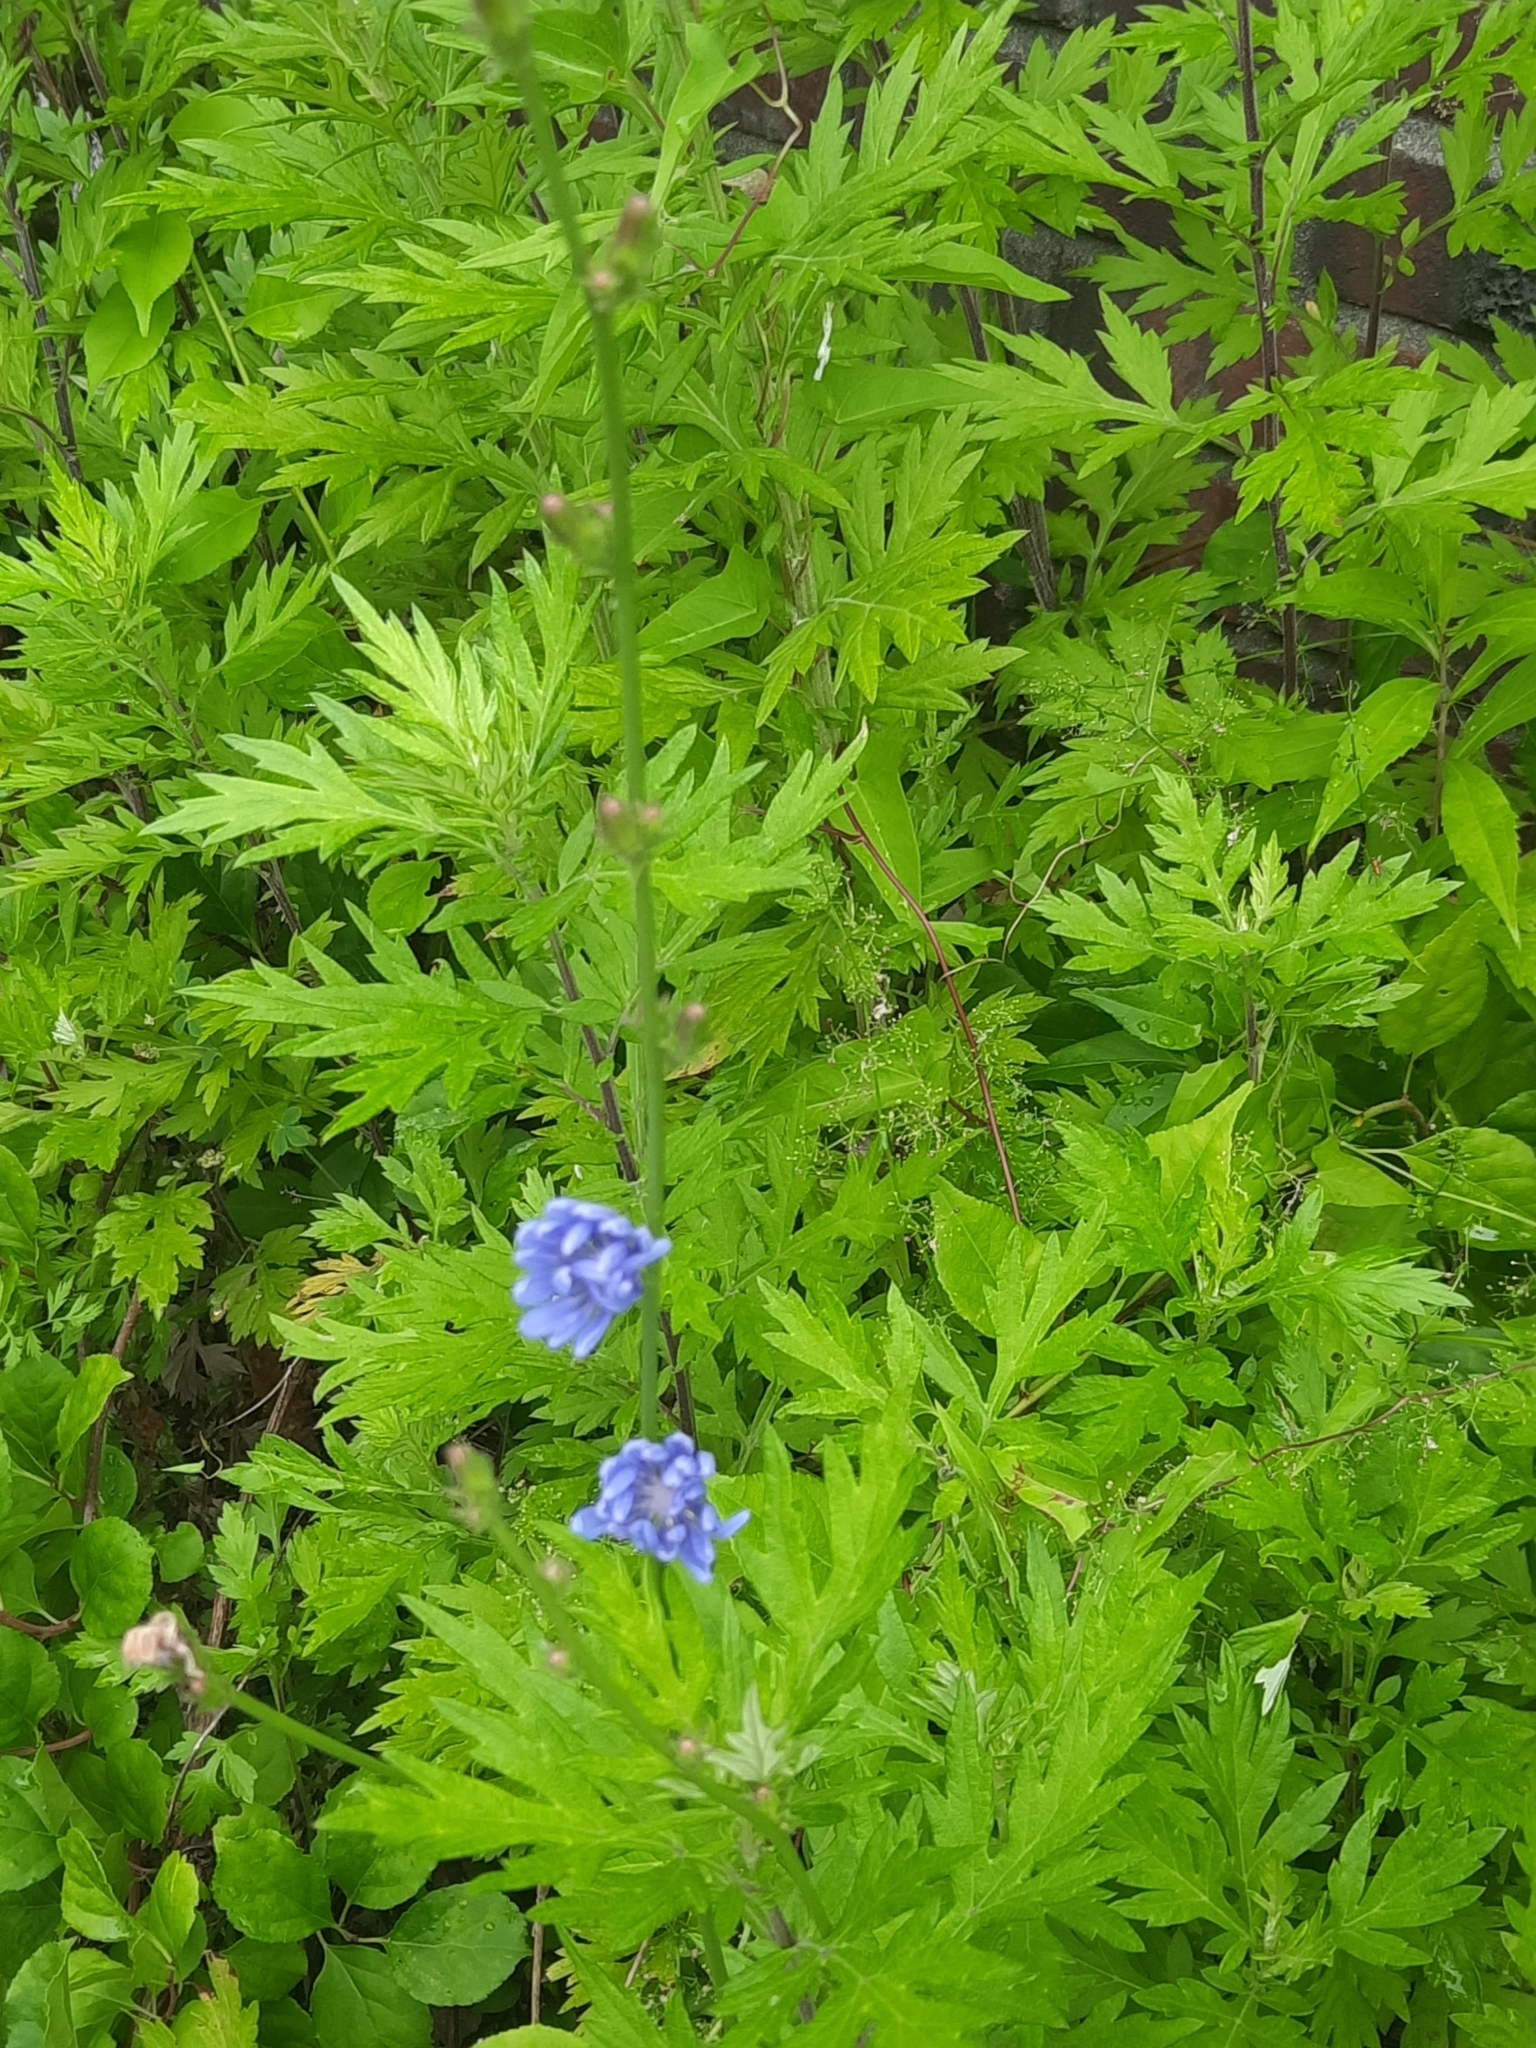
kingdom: Plantae
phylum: Tracheophyta
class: Magnoliopsida
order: Asterales
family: Asteraceae
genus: Cichorium
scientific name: Cichorium intybus
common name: Chicory
